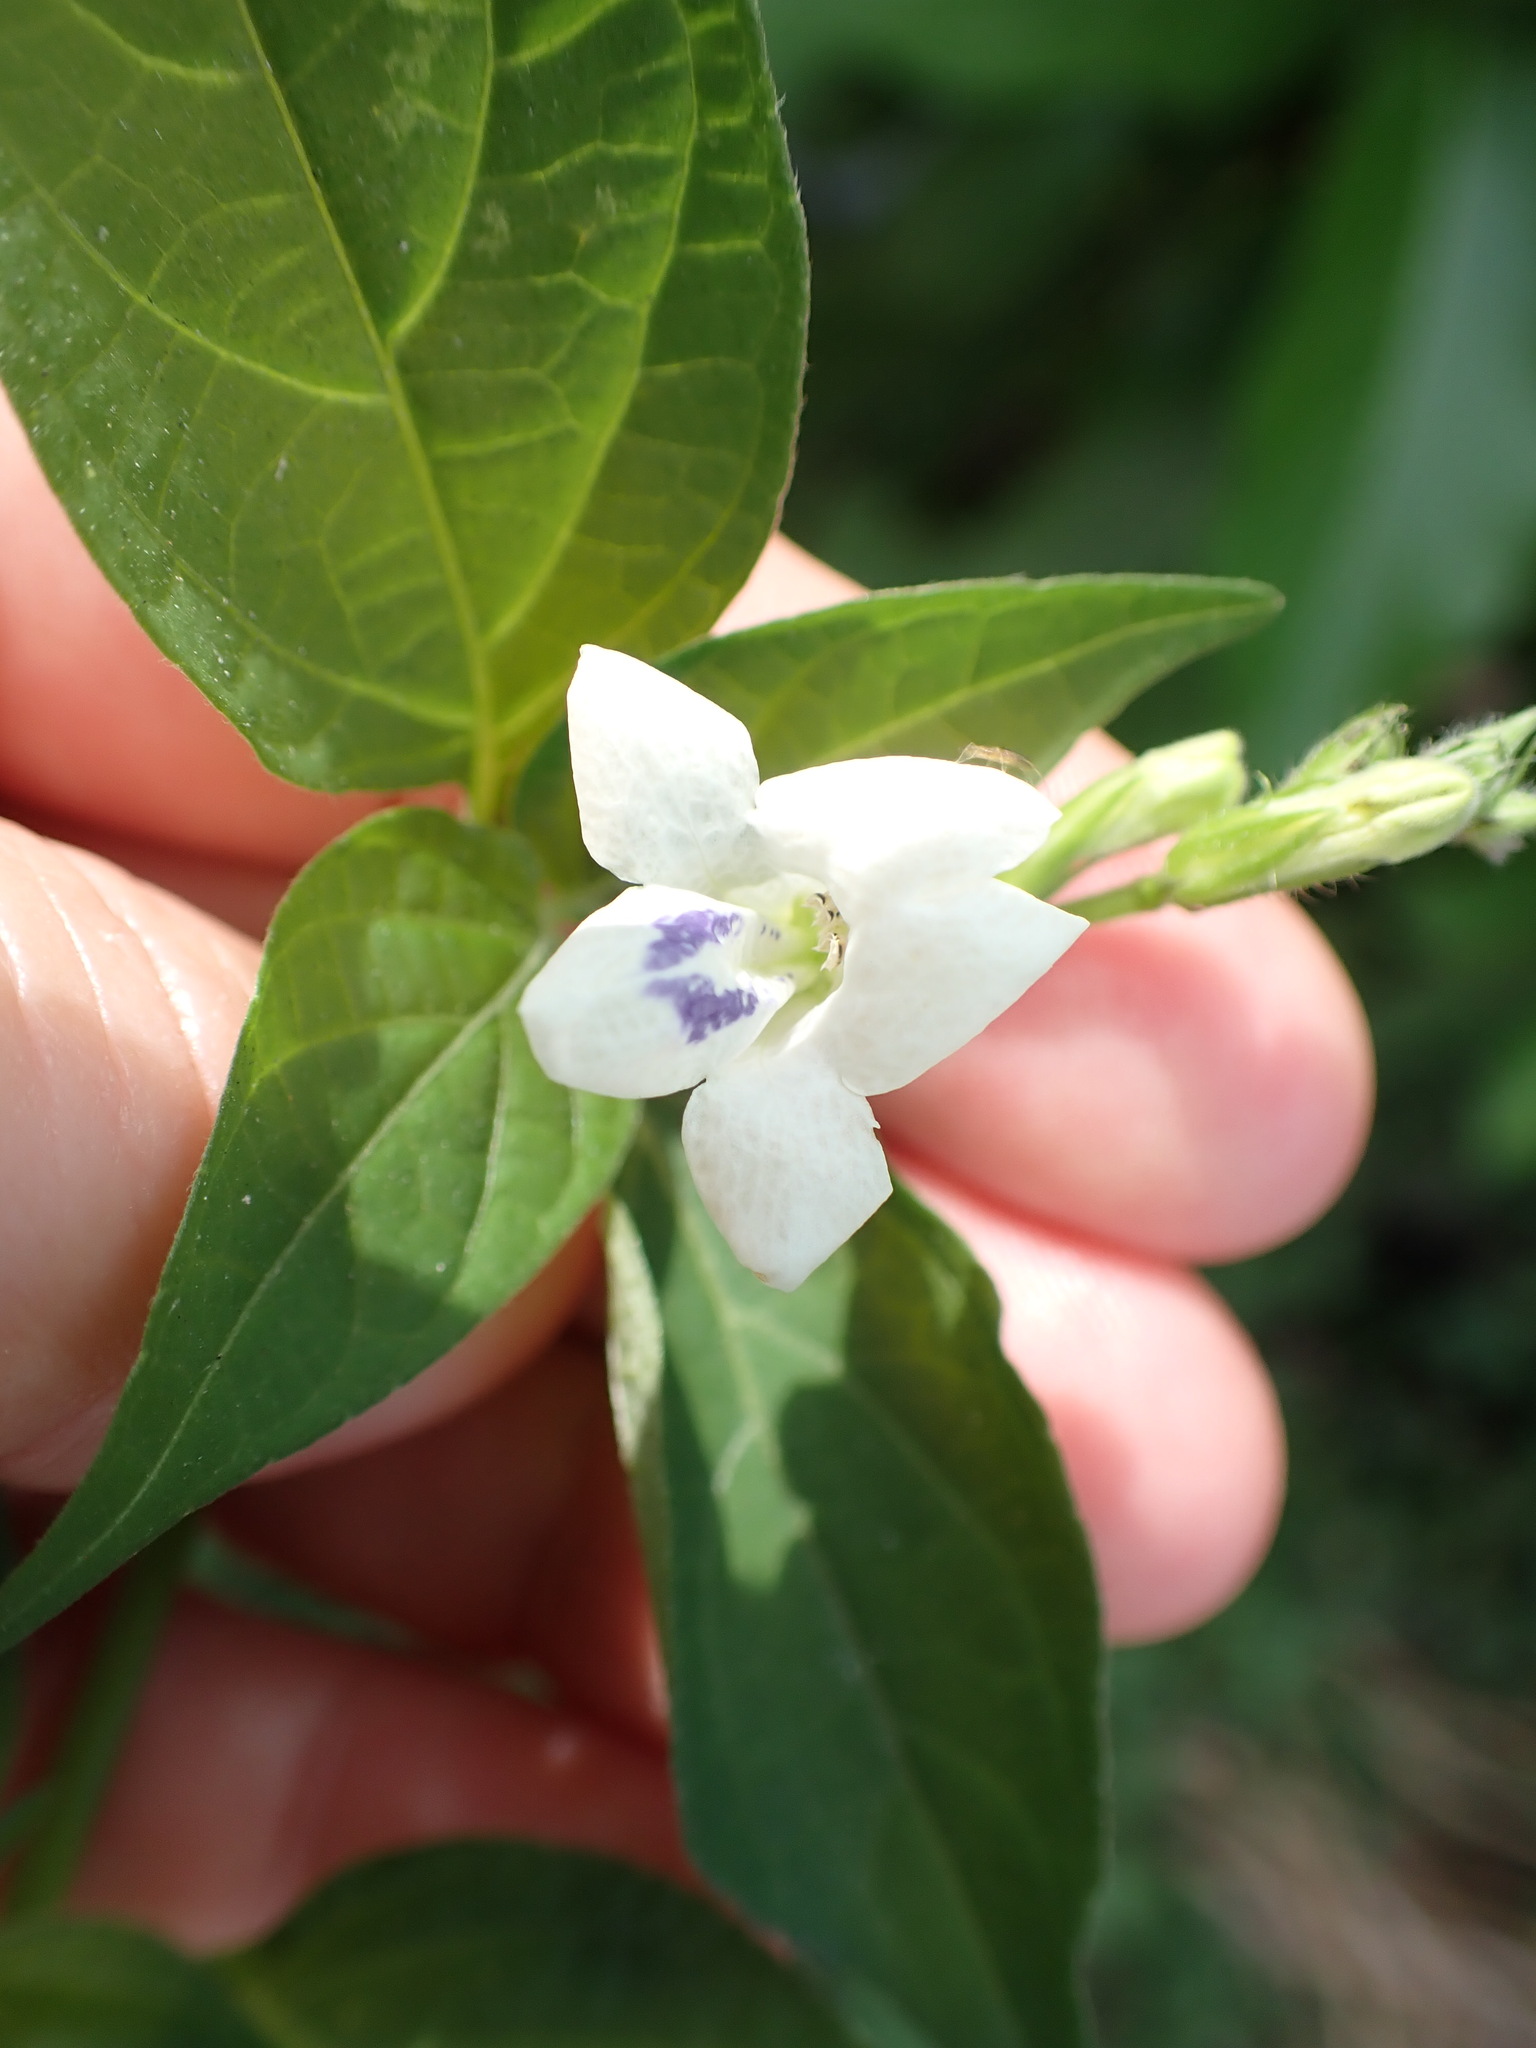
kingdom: Plantae
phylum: Tracheophyta
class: Magnoliopsida
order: Lamiales
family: Acanthaceae
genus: Asystasia
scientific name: Asystasia intrusa
